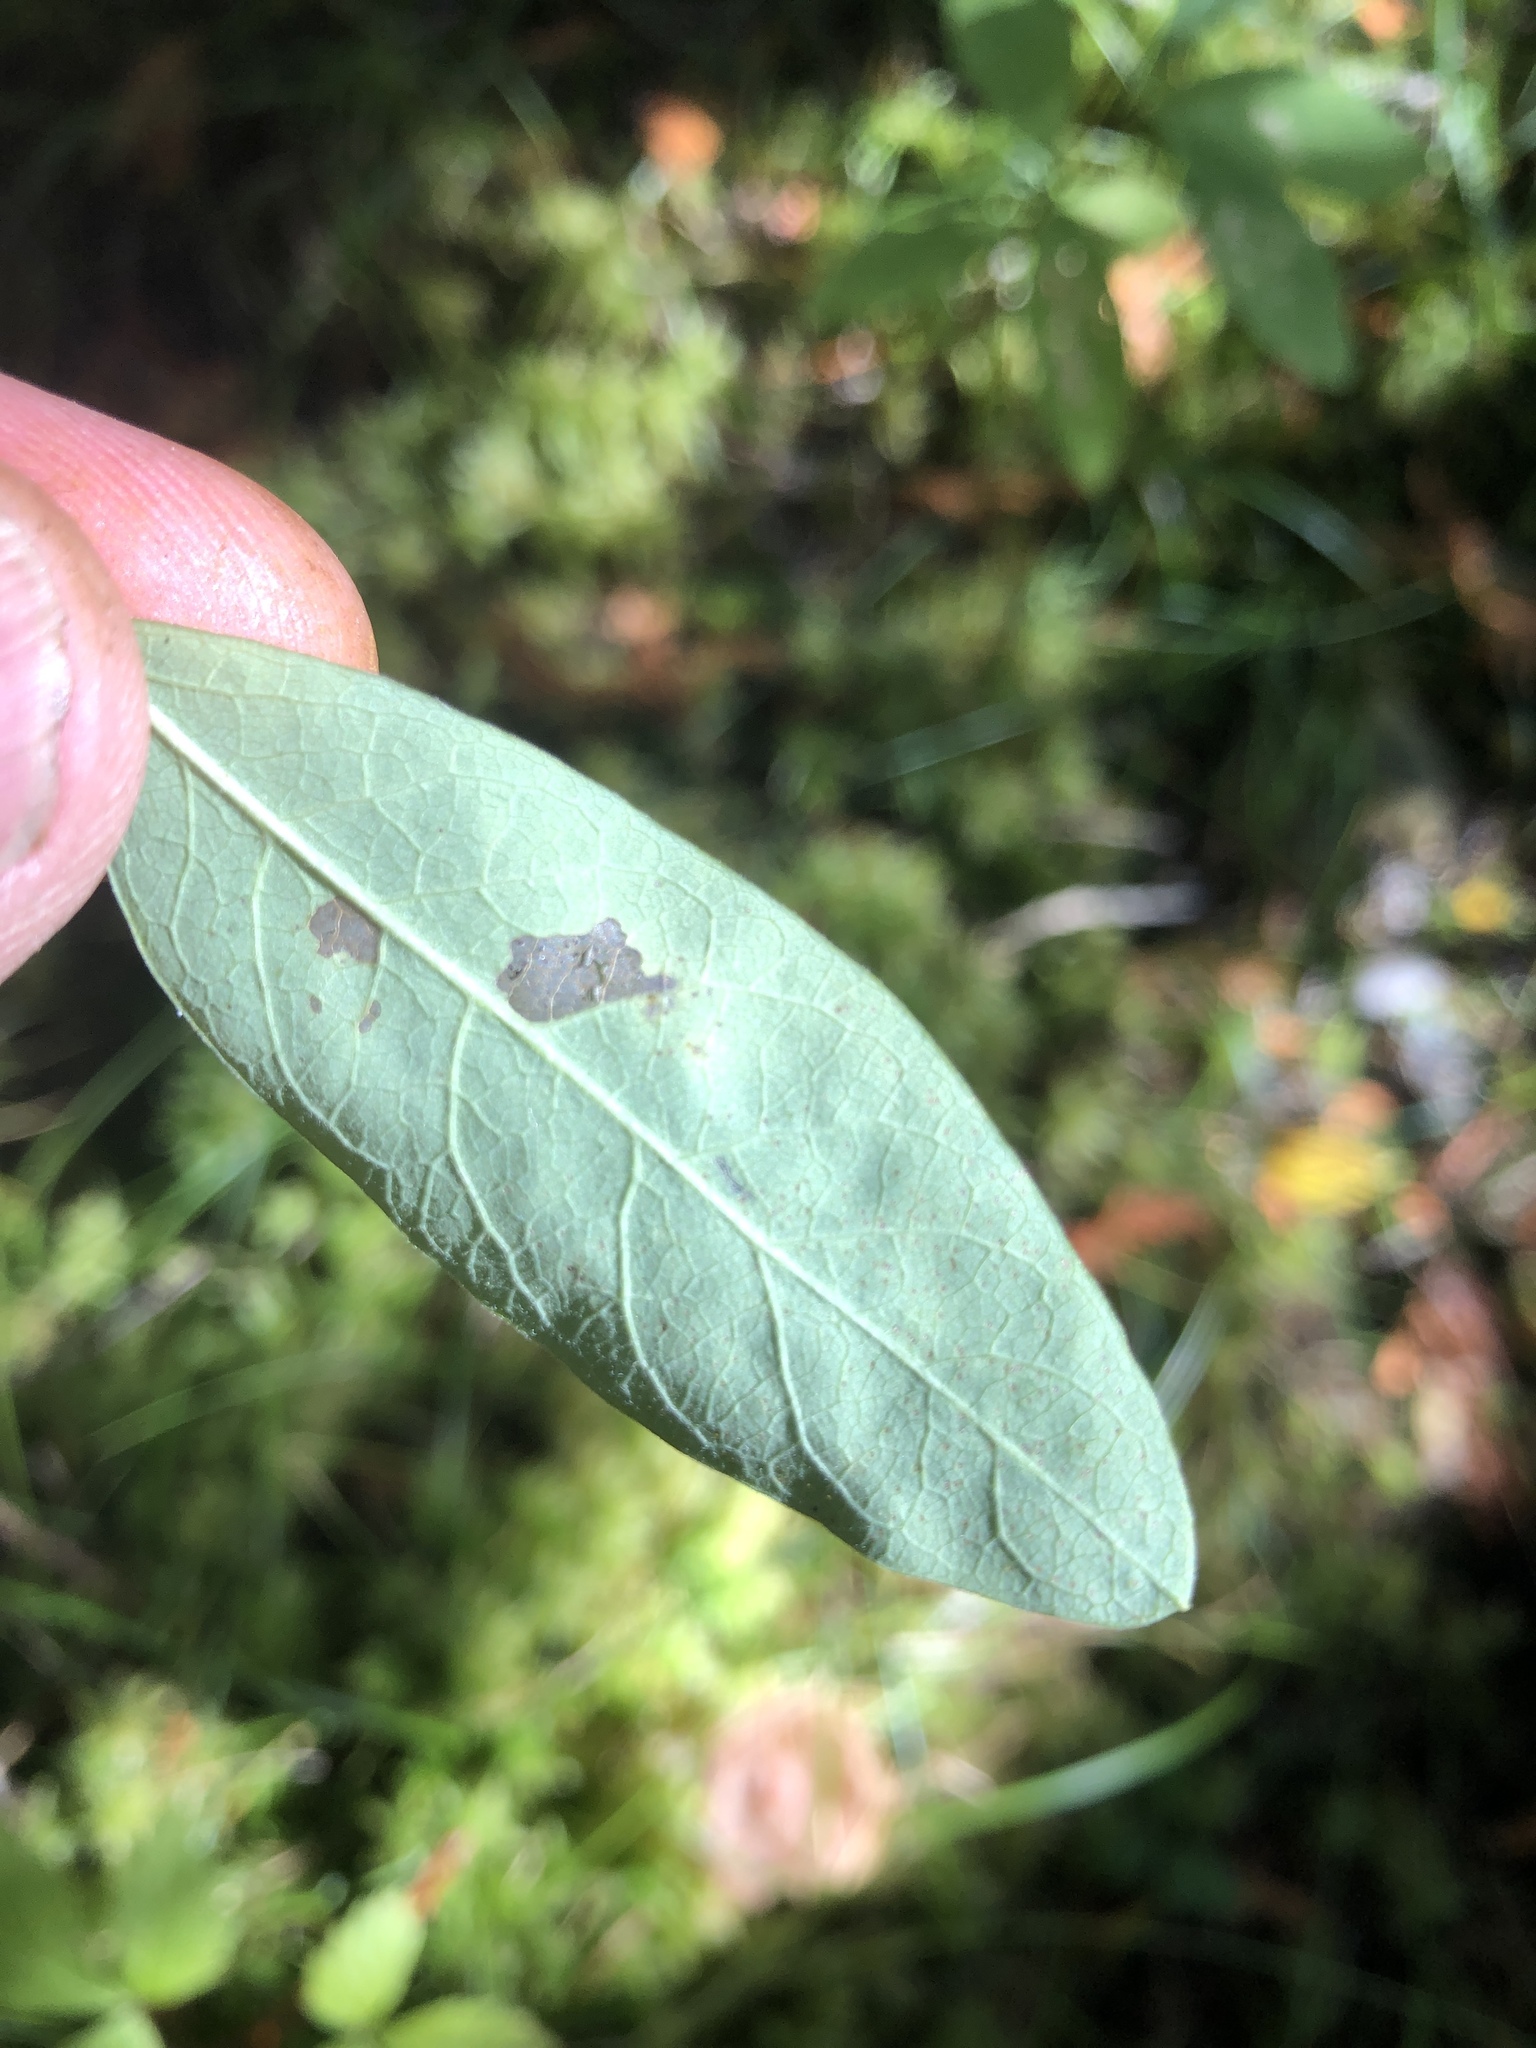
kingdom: Plantae
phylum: Tracheophyta
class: Magnoliopsida
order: Dipsacales
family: Caprifoliaceae
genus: Lonicera
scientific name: Lonicera oblongifolia
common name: Swamp fly honeysuckle
